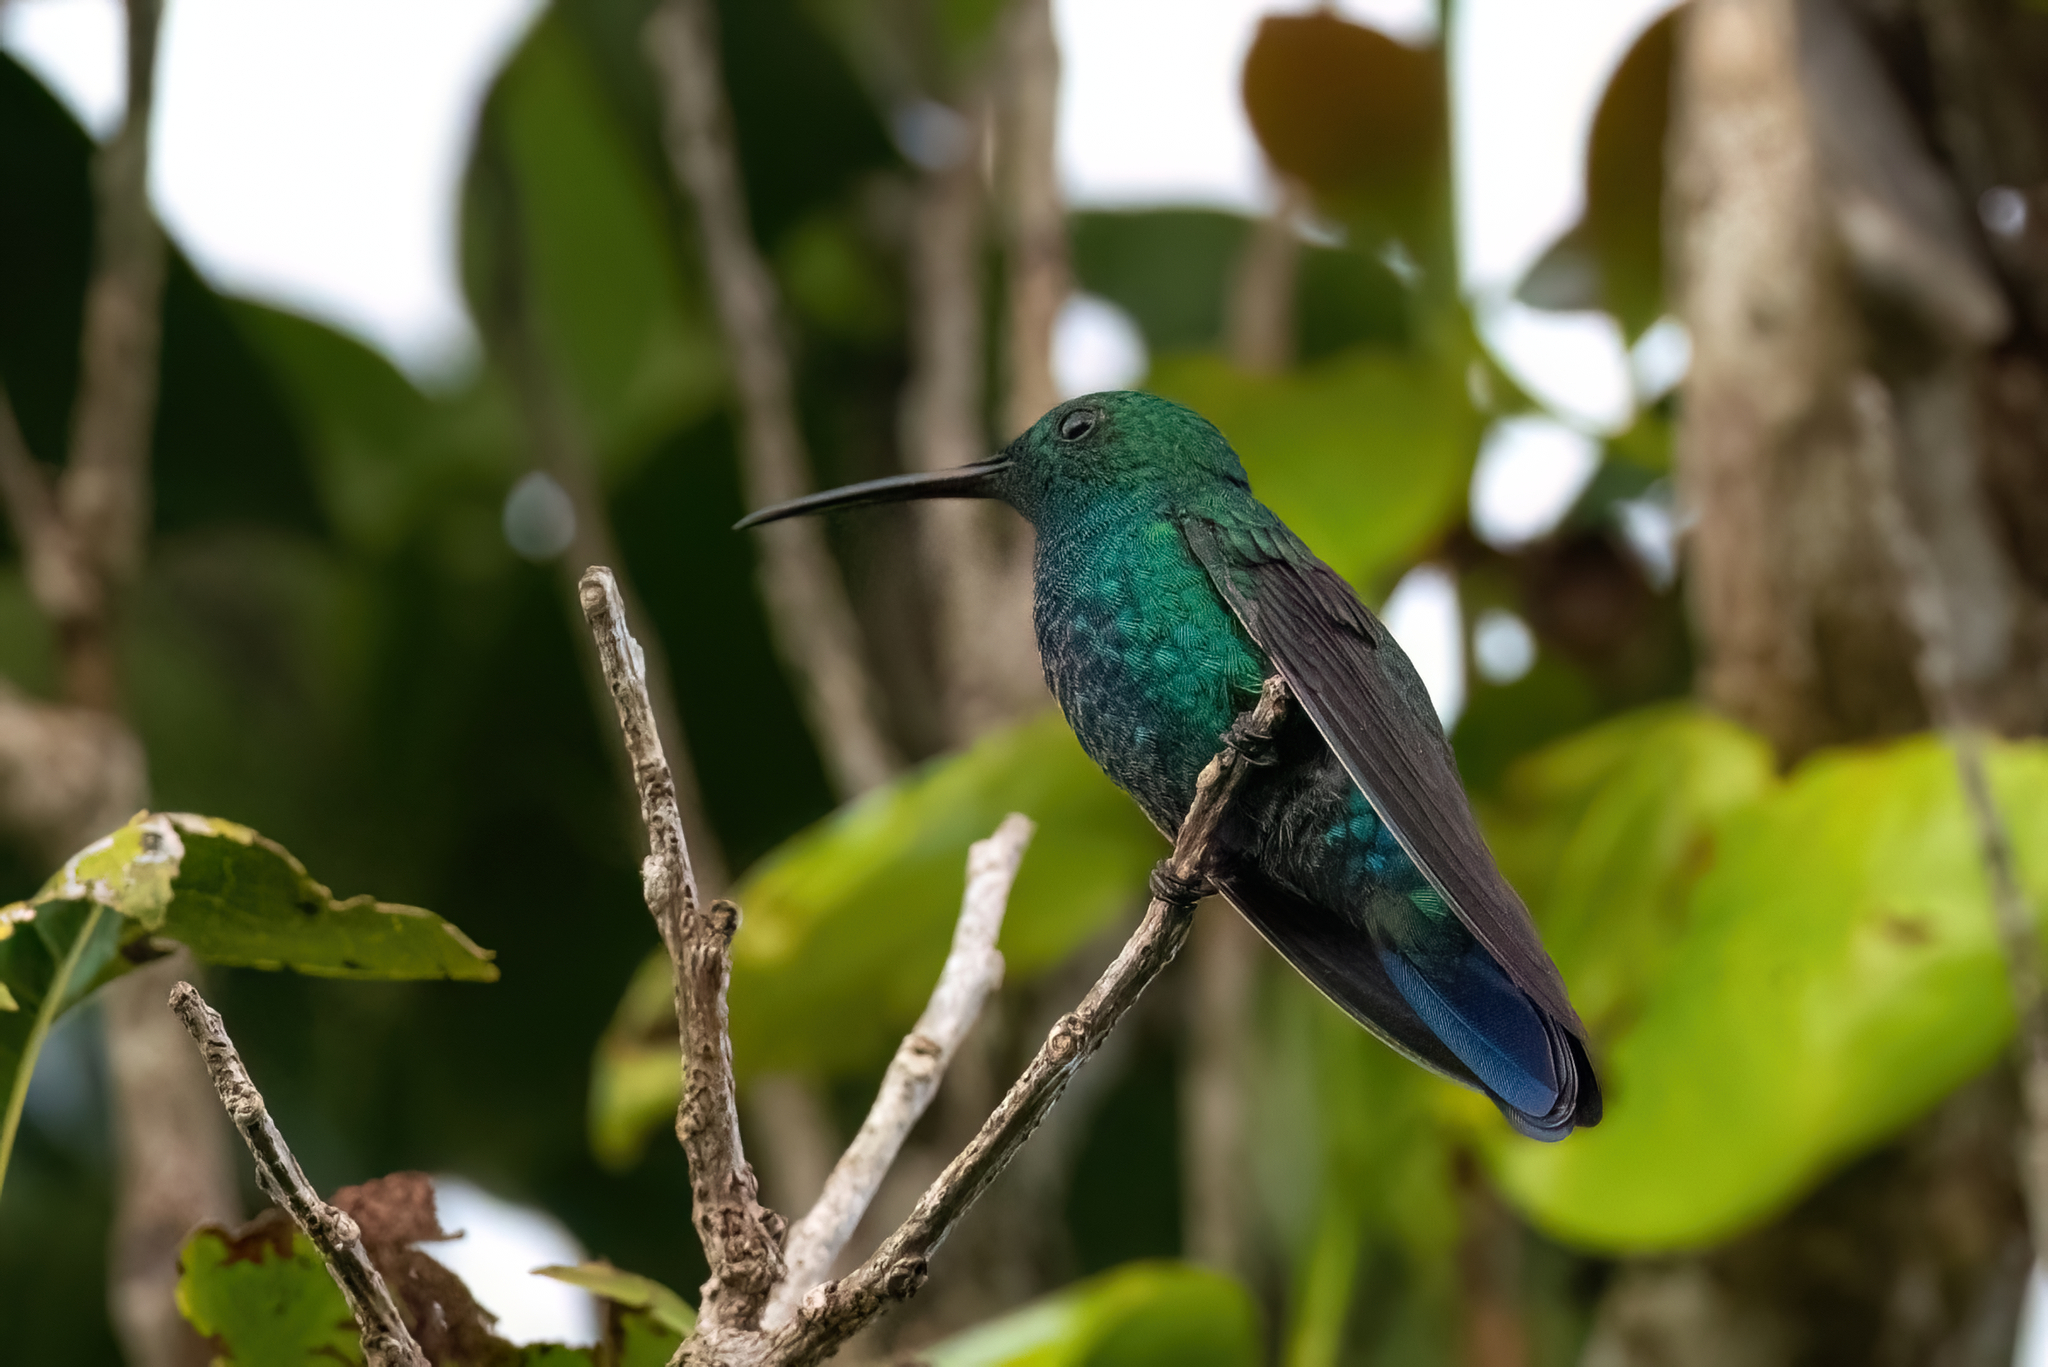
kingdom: Animalia
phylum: Chordata
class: Aves
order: Apodiformes
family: Trochilidae
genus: Anthracothorax
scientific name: Anthracothorax viridis
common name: Green mango
